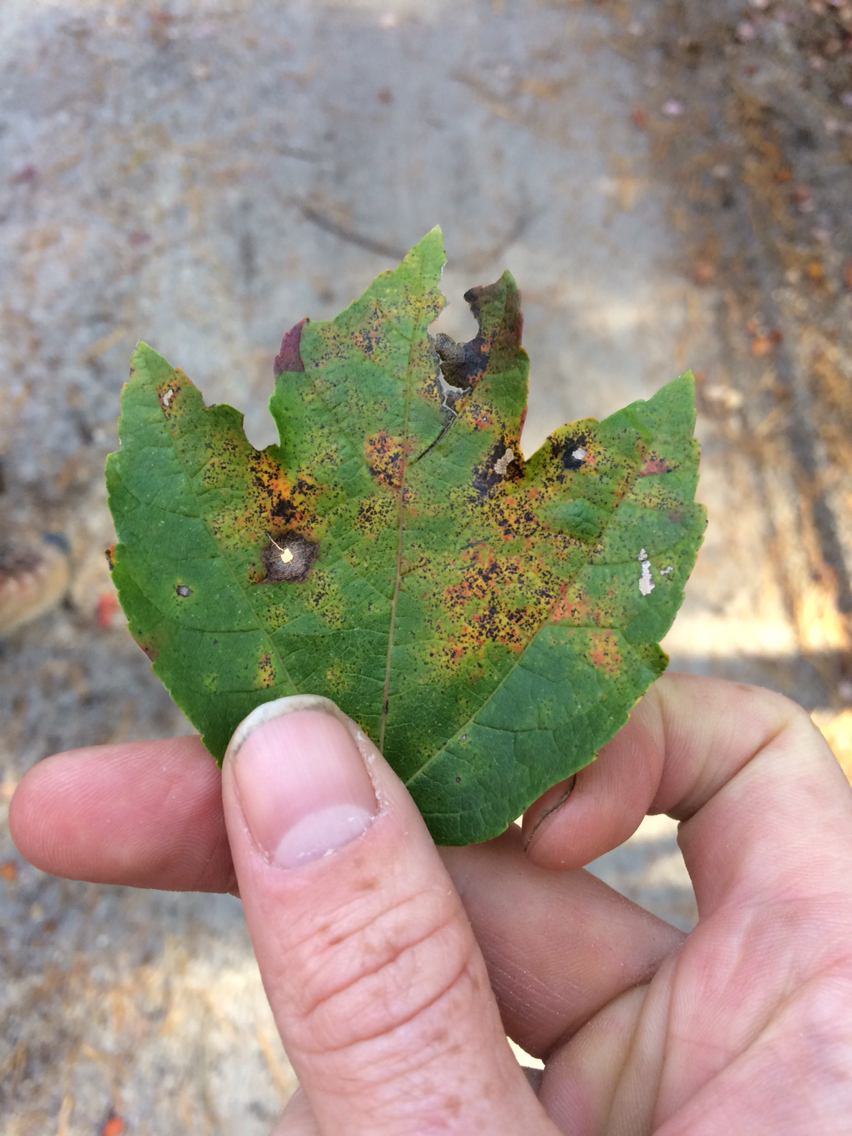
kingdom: Plantae
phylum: Tracheophyta
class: Magnoliopsida
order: Sapindales
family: Sapindaceae
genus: Acer
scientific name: Acer rubrum
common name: Red maple
